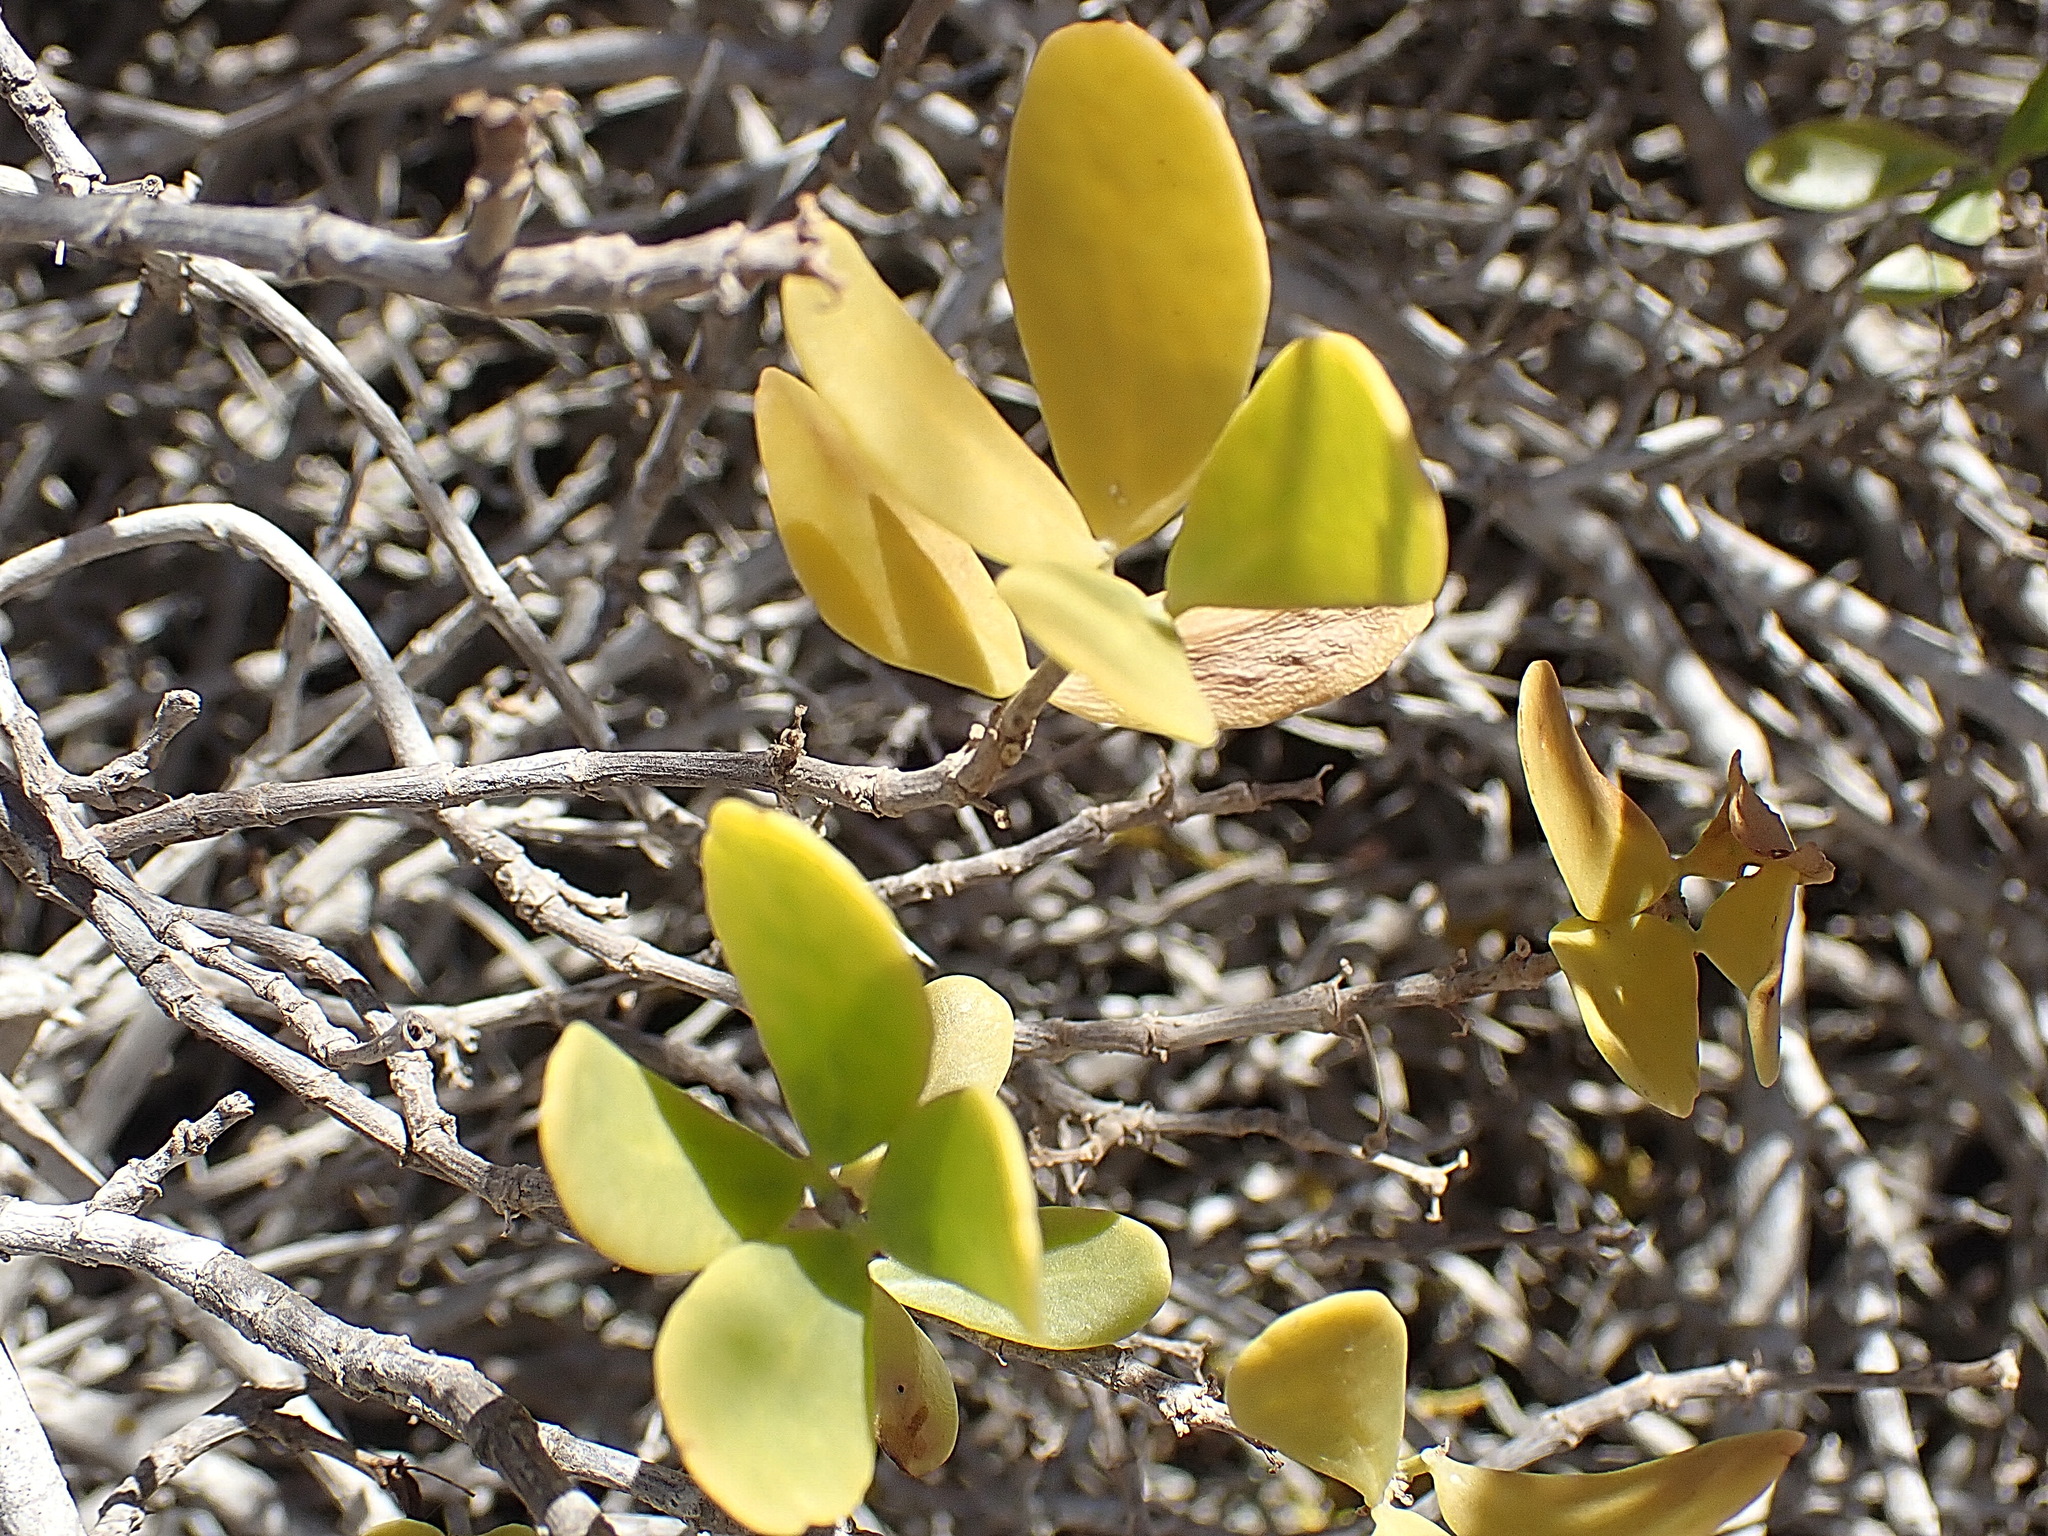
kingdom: Plantae
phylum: Tracheophyta
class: Magnoliopsida
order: Zygophyllales
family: Zygophyllaceae
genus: Roepera
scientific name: Roepera morgsana
